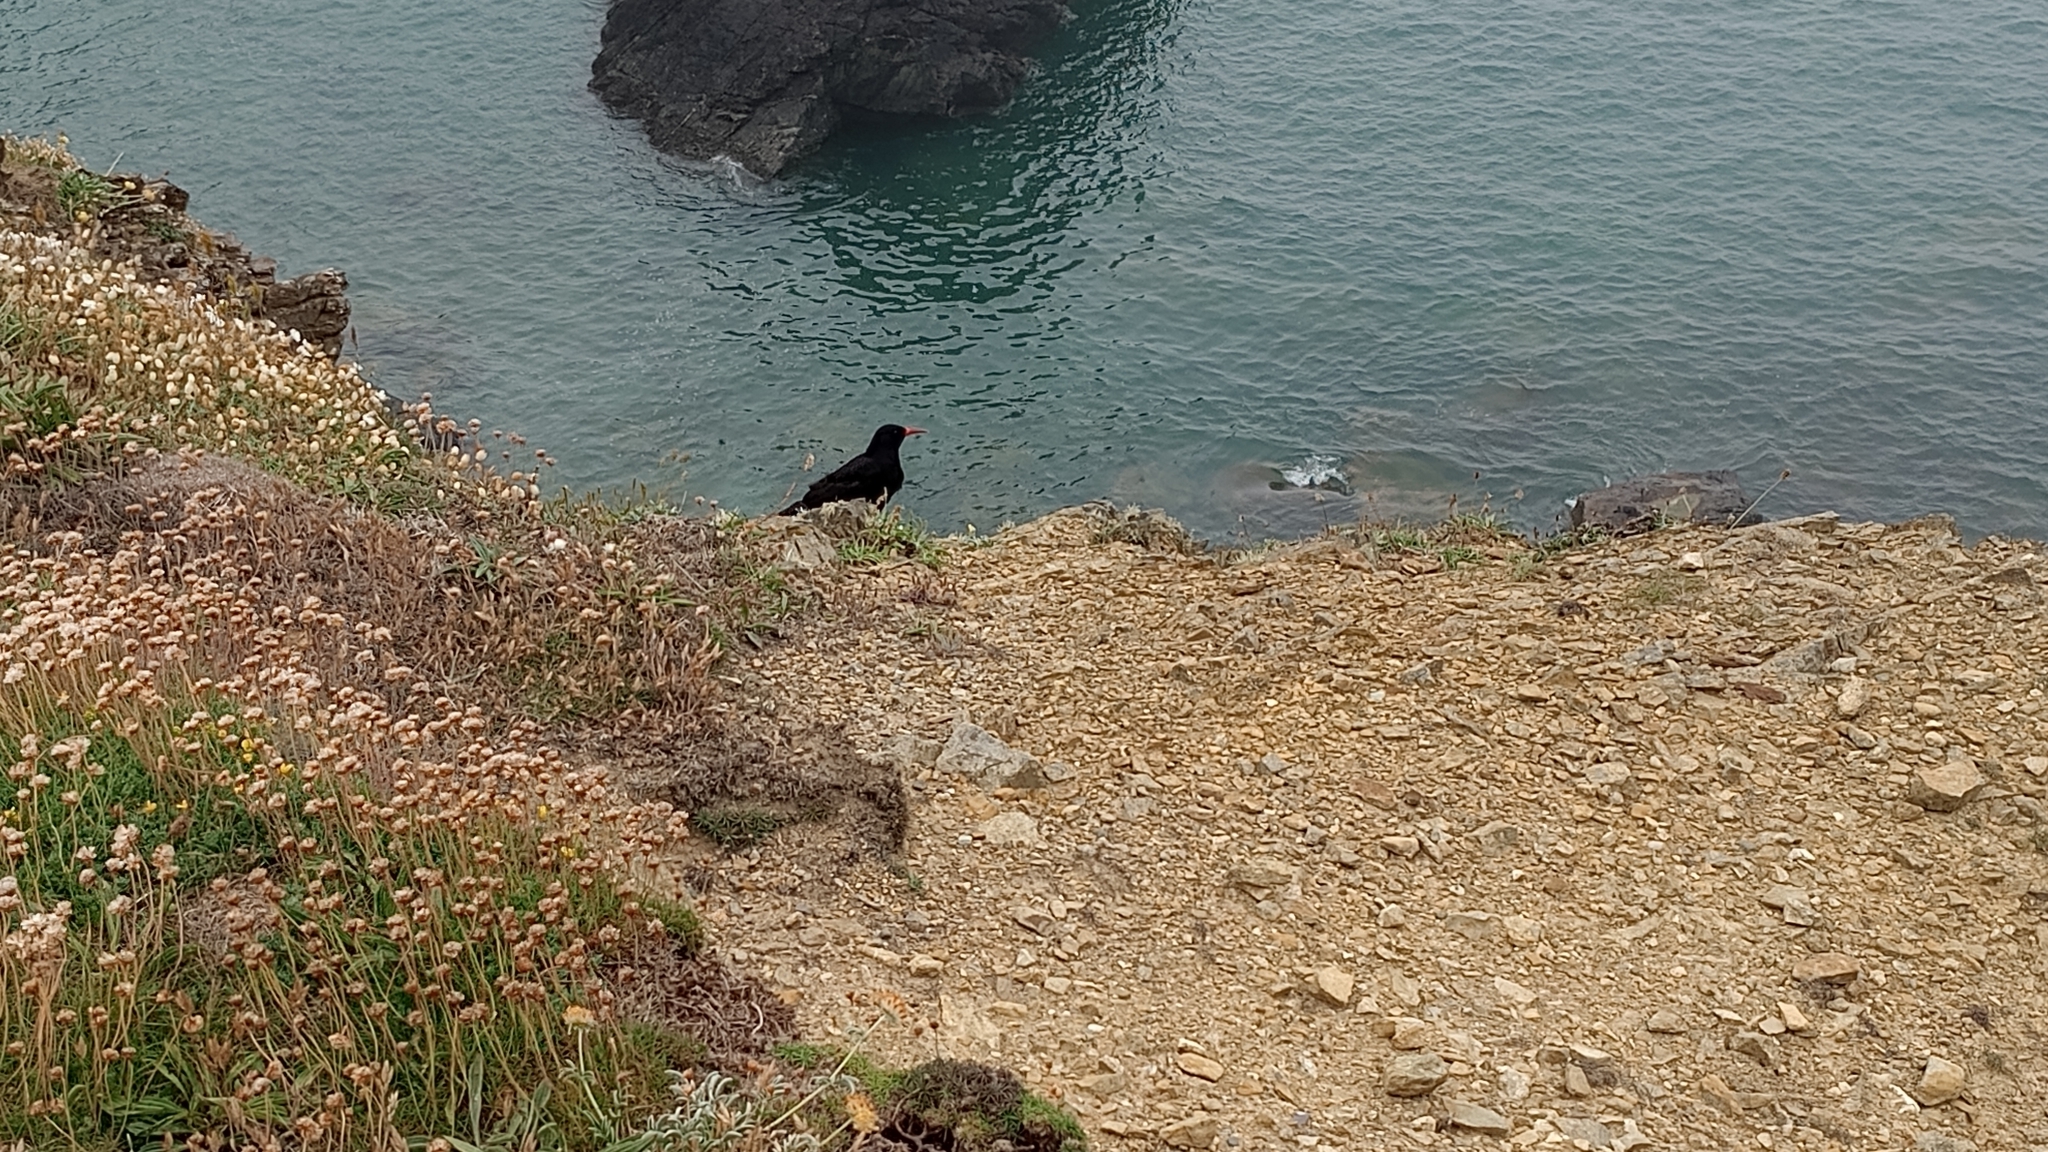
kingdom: Animalia
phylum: Chordata
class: Aves
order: Passeriformes
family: Corvidae
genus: Pyrrhocorax
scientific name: Pyrrhocorax pyrrhocorax
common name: Red-billed chough
